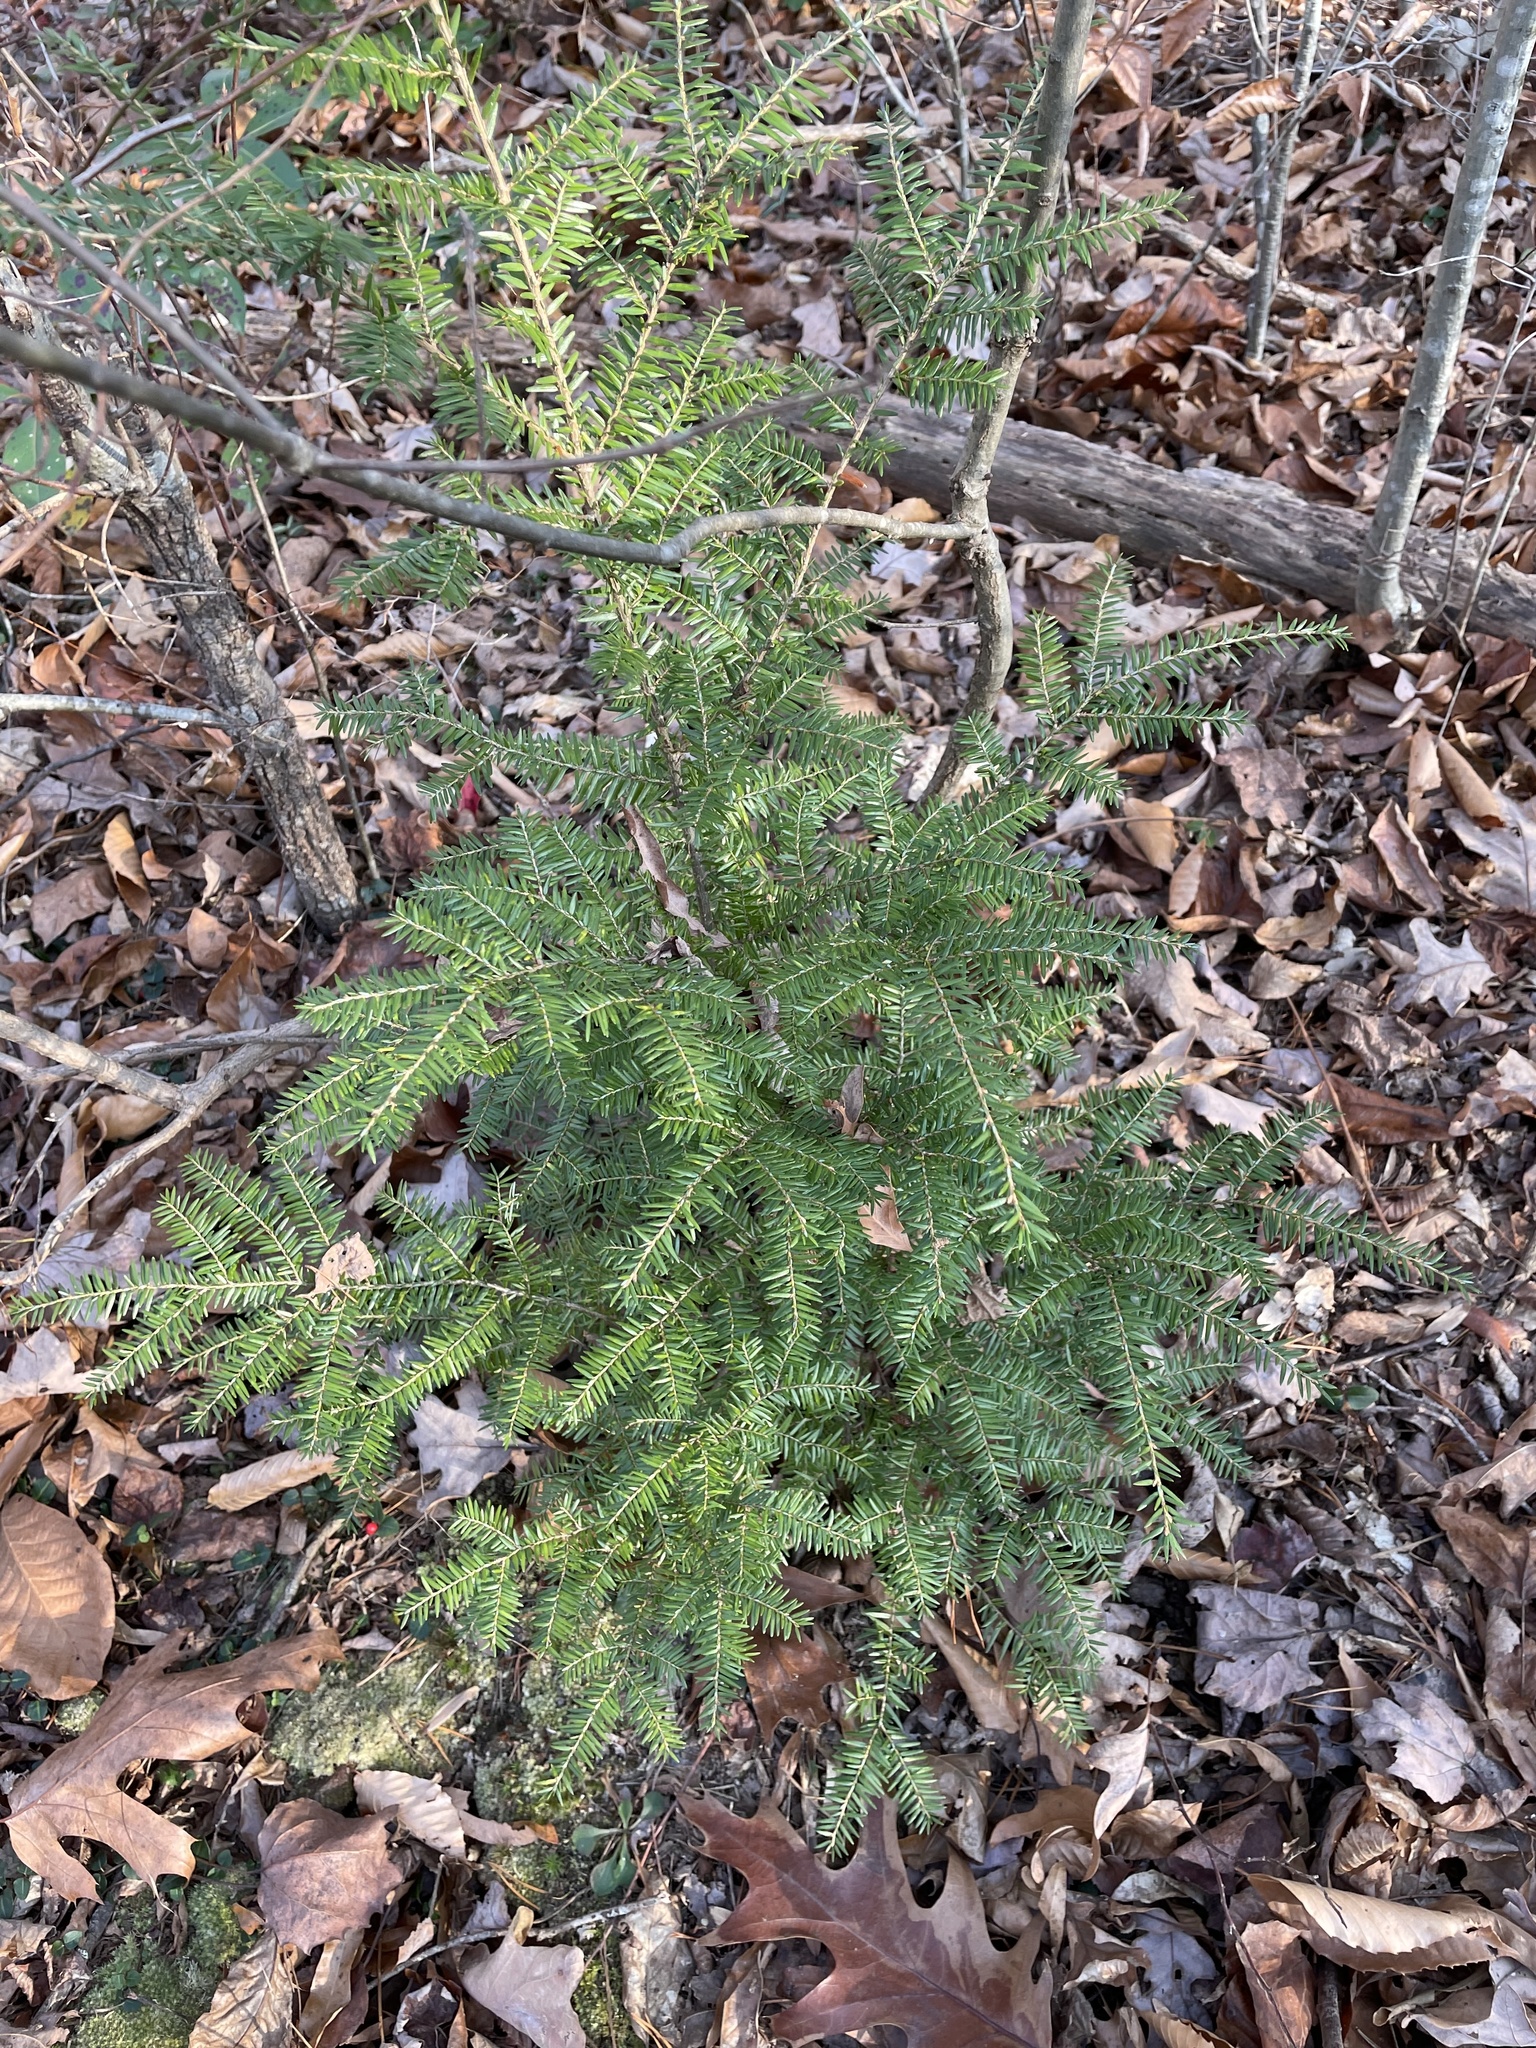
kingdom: Plantae
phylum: Tracheophyta
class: Pinopsida
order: Pinales
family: Pinaceae
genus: Tsuga
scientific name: Tsuga canadensis
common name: Eastern hemlock
